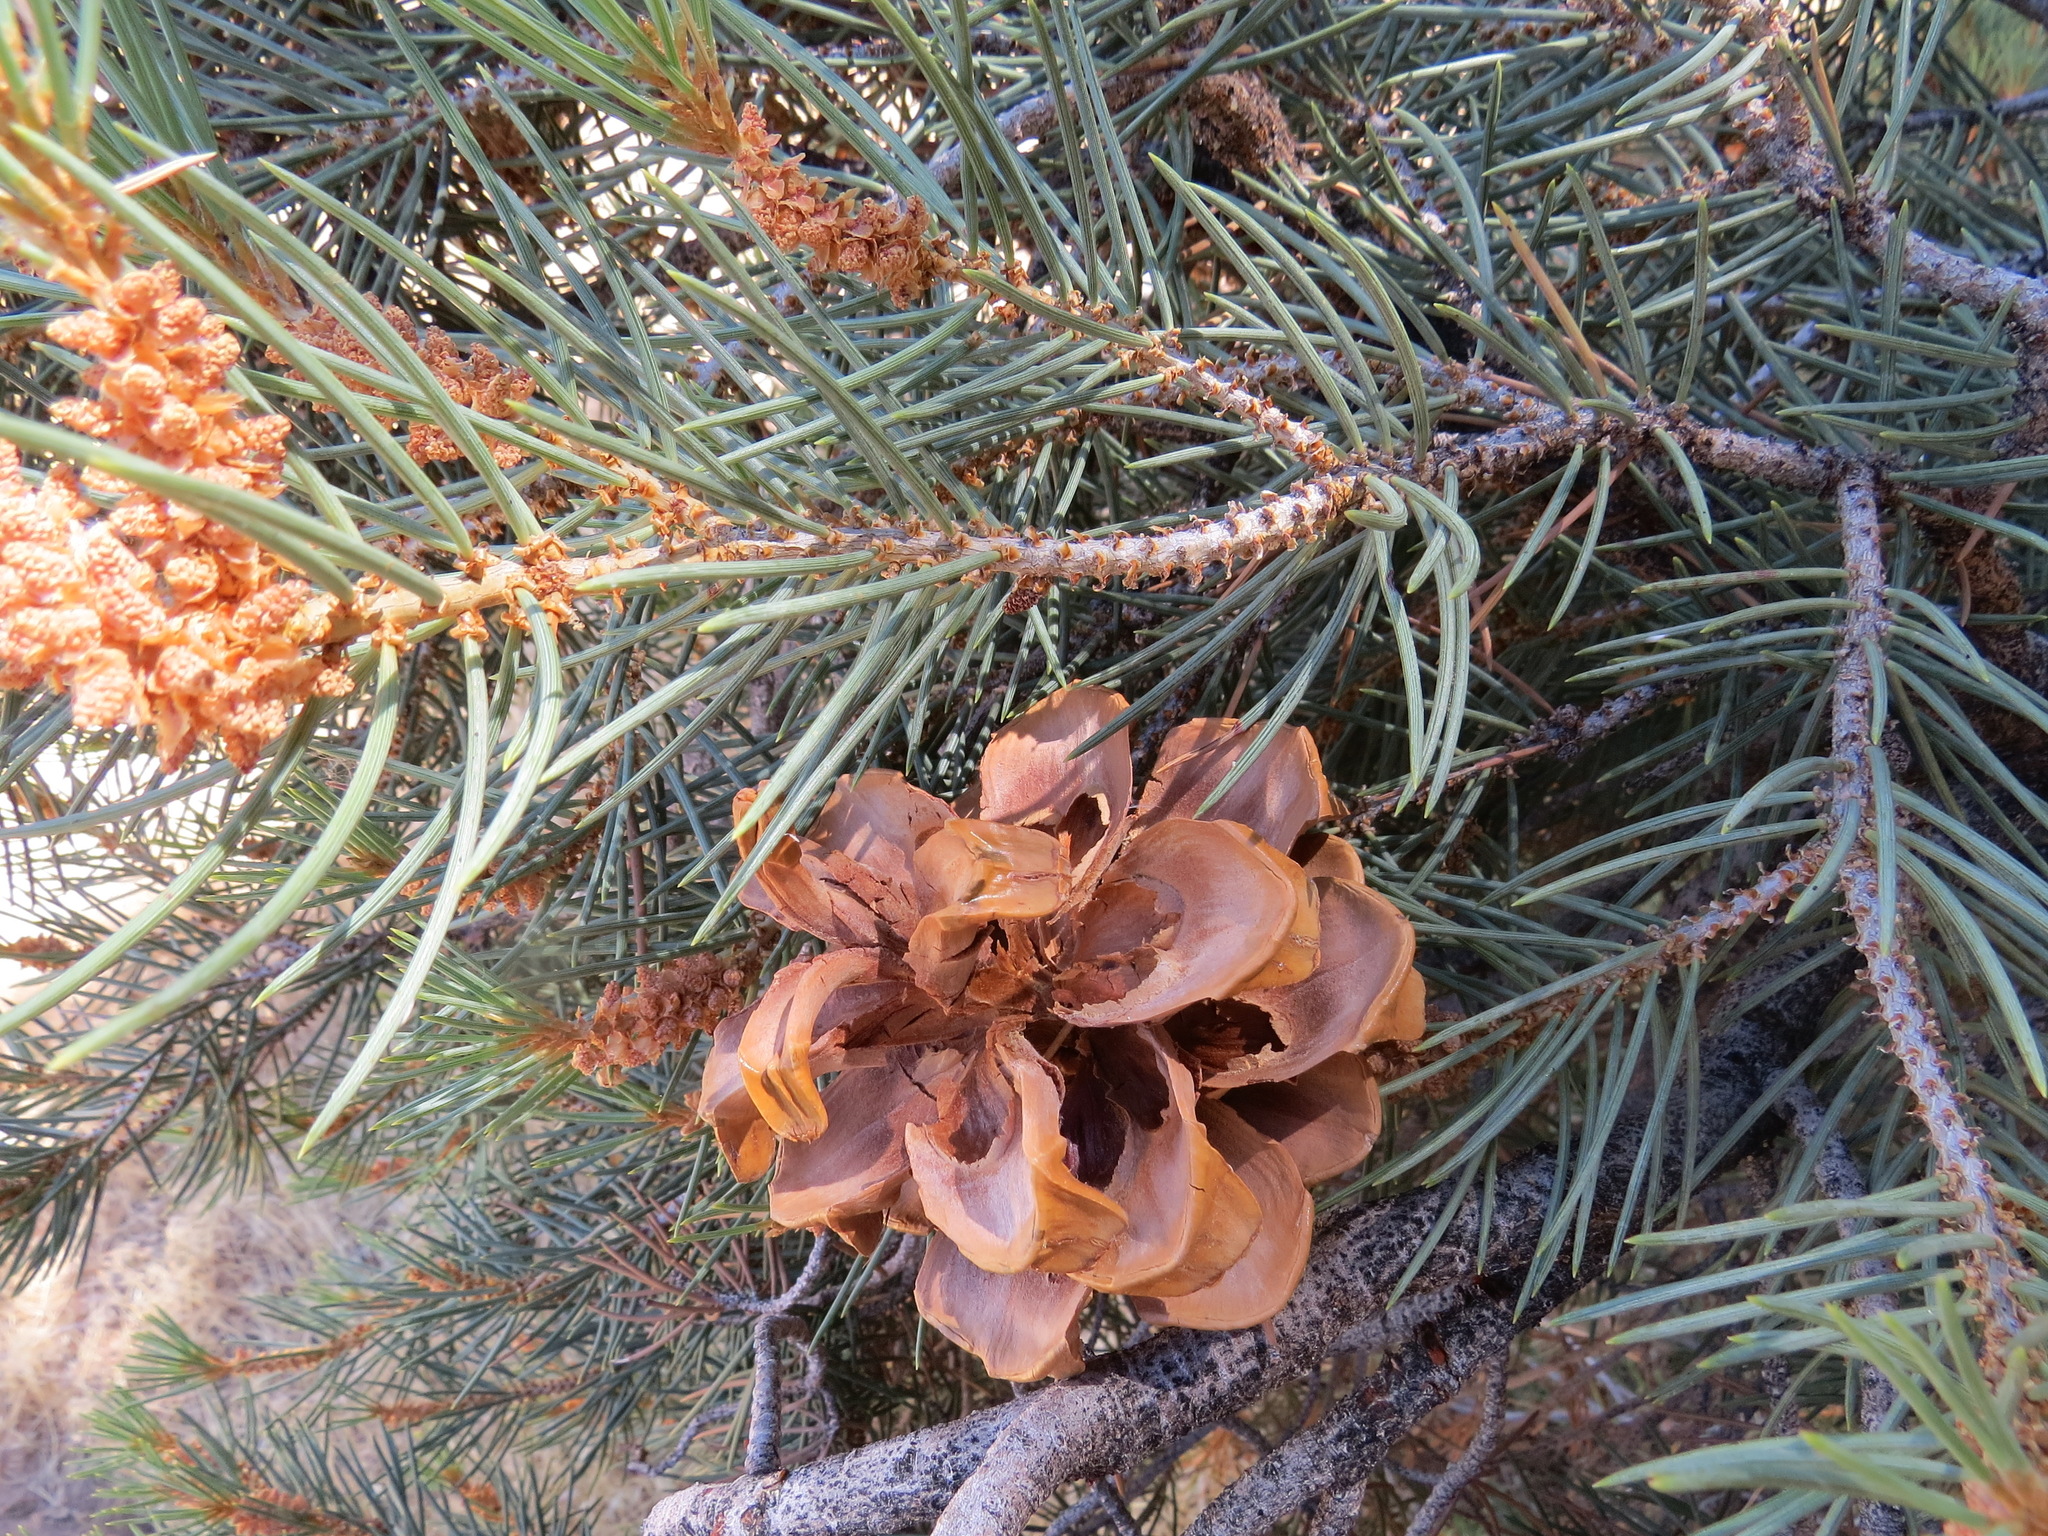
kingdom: Plantae
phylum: Tracheophyta
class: Pinopsida
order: Pinales
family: Pinaceae
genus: Pinus
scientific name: Pinus monophylla
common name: One-leaved nut pine
